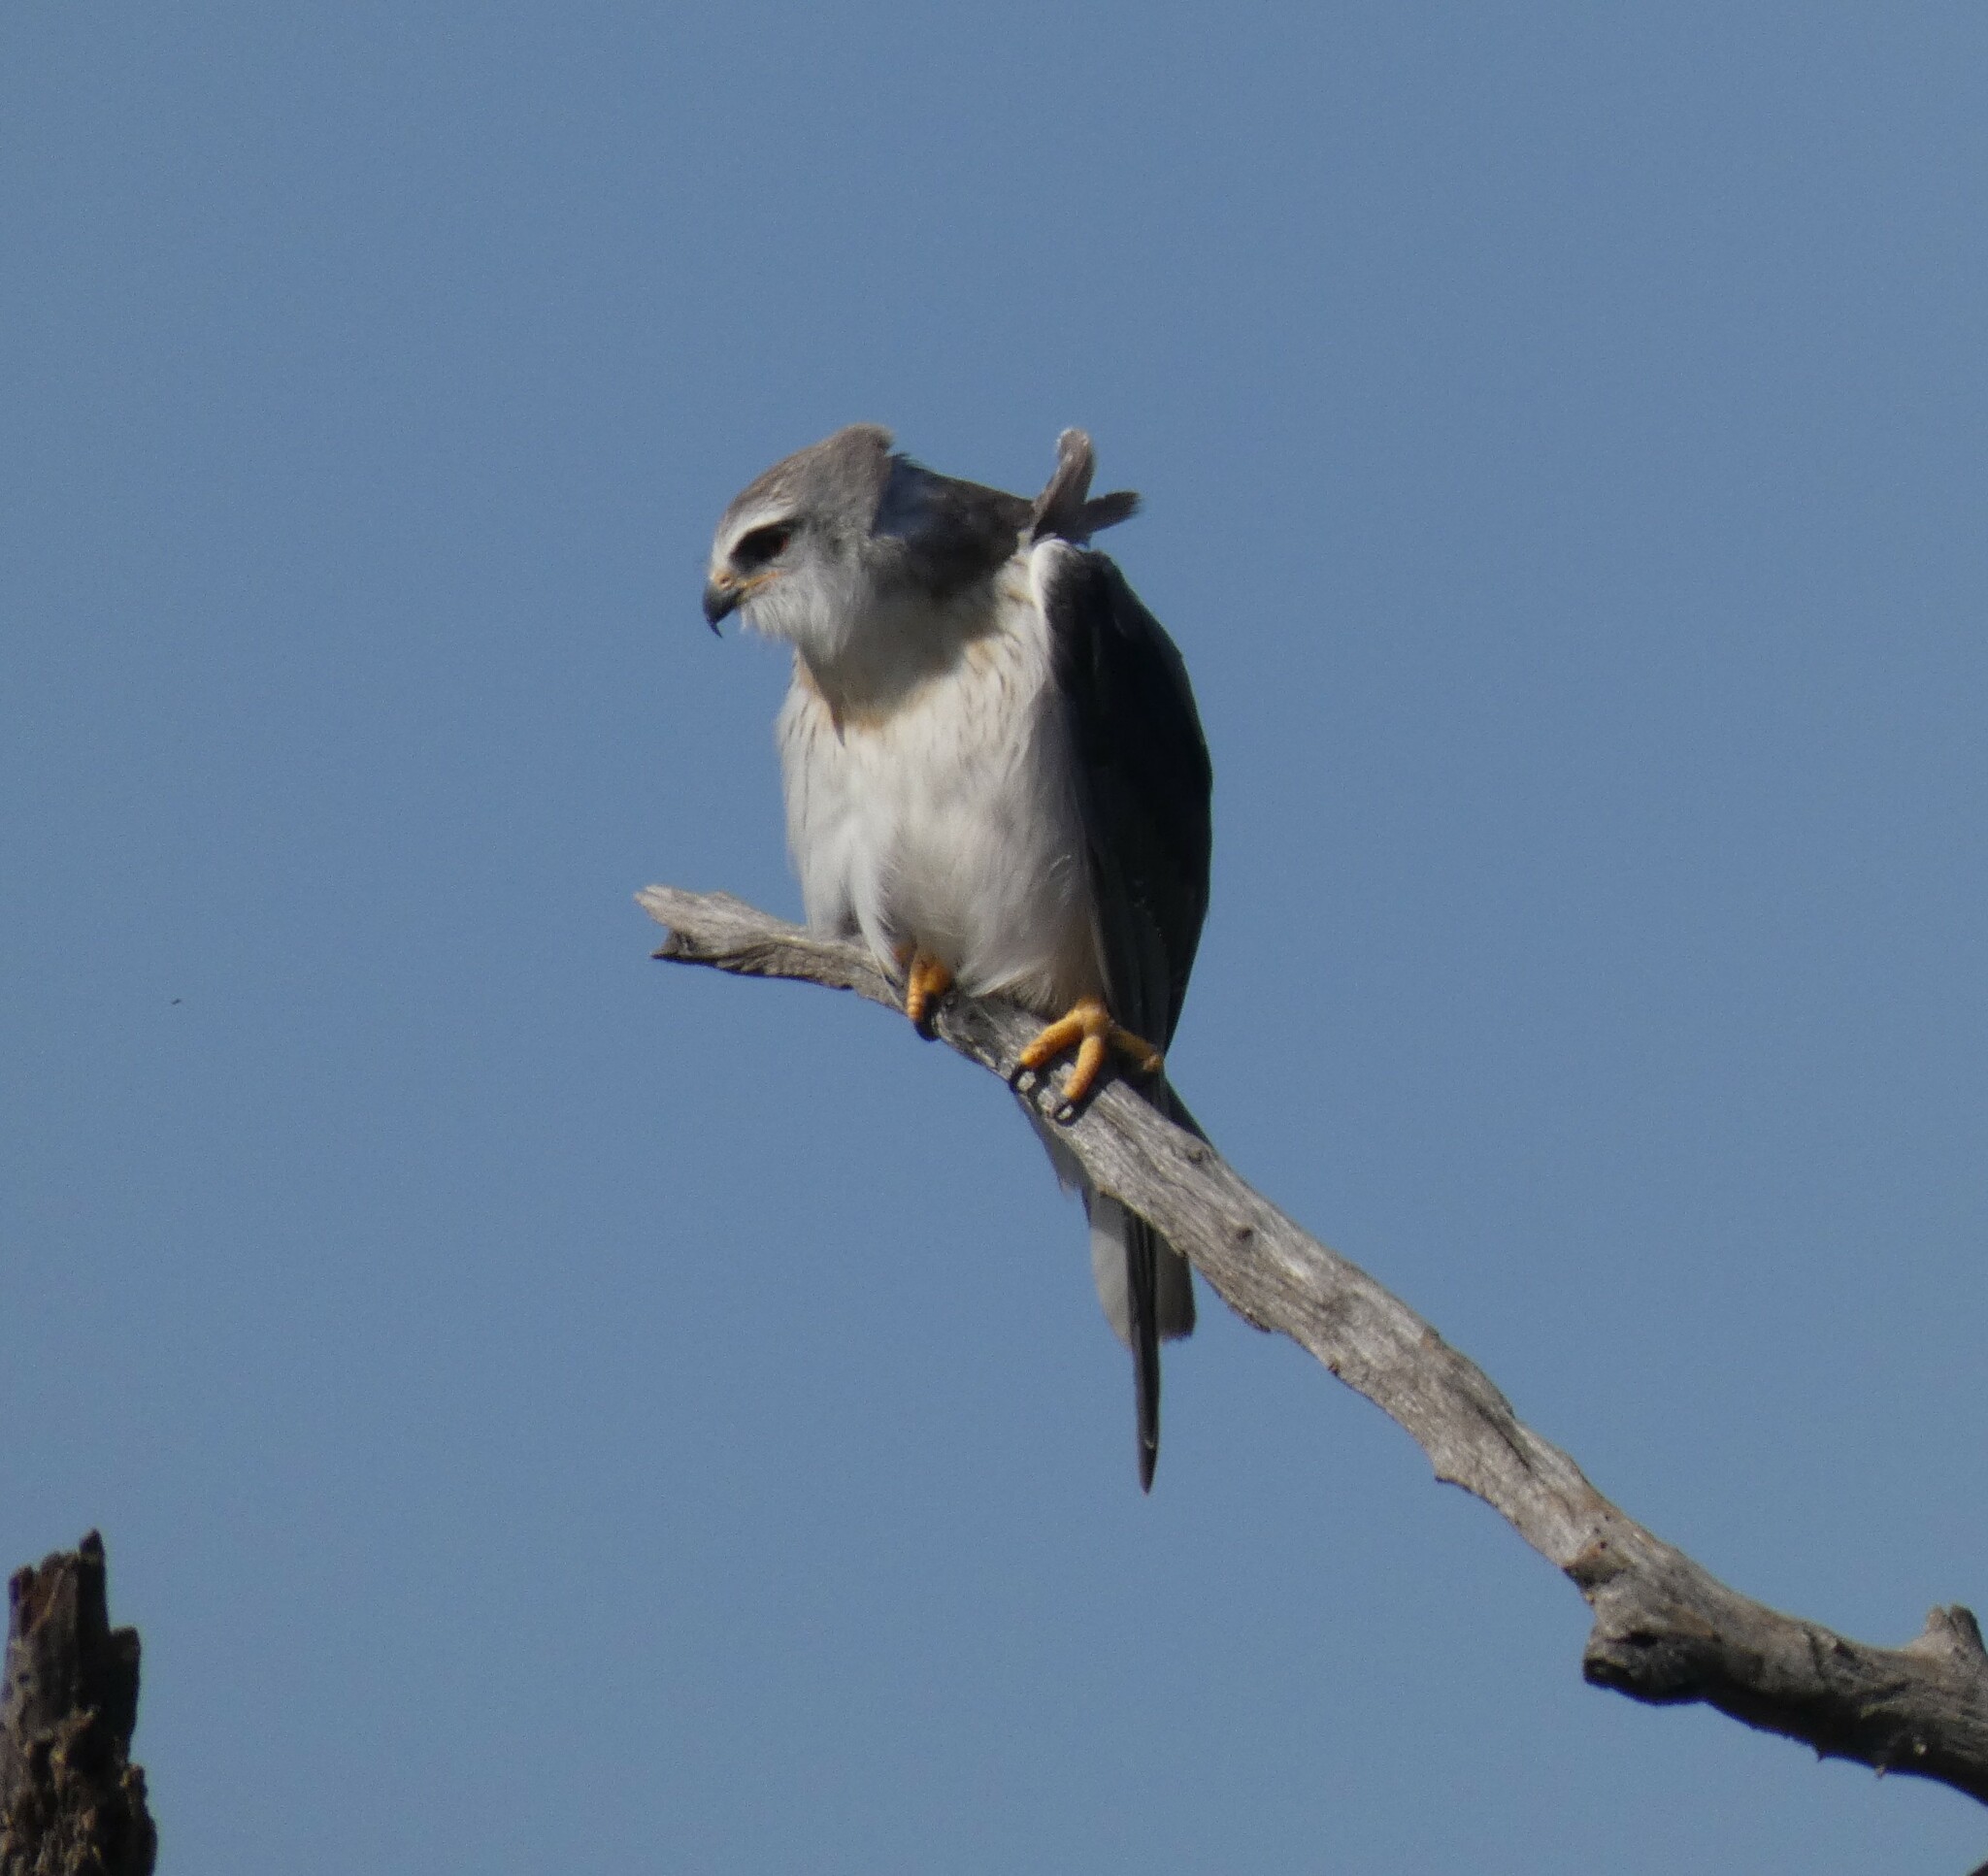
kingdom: Animalia
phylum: Chordata
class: Aves
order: Accipitriformes
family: Accipitridae
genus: Elanus
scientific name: Elanus caeruleus
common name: Black-winged kite
